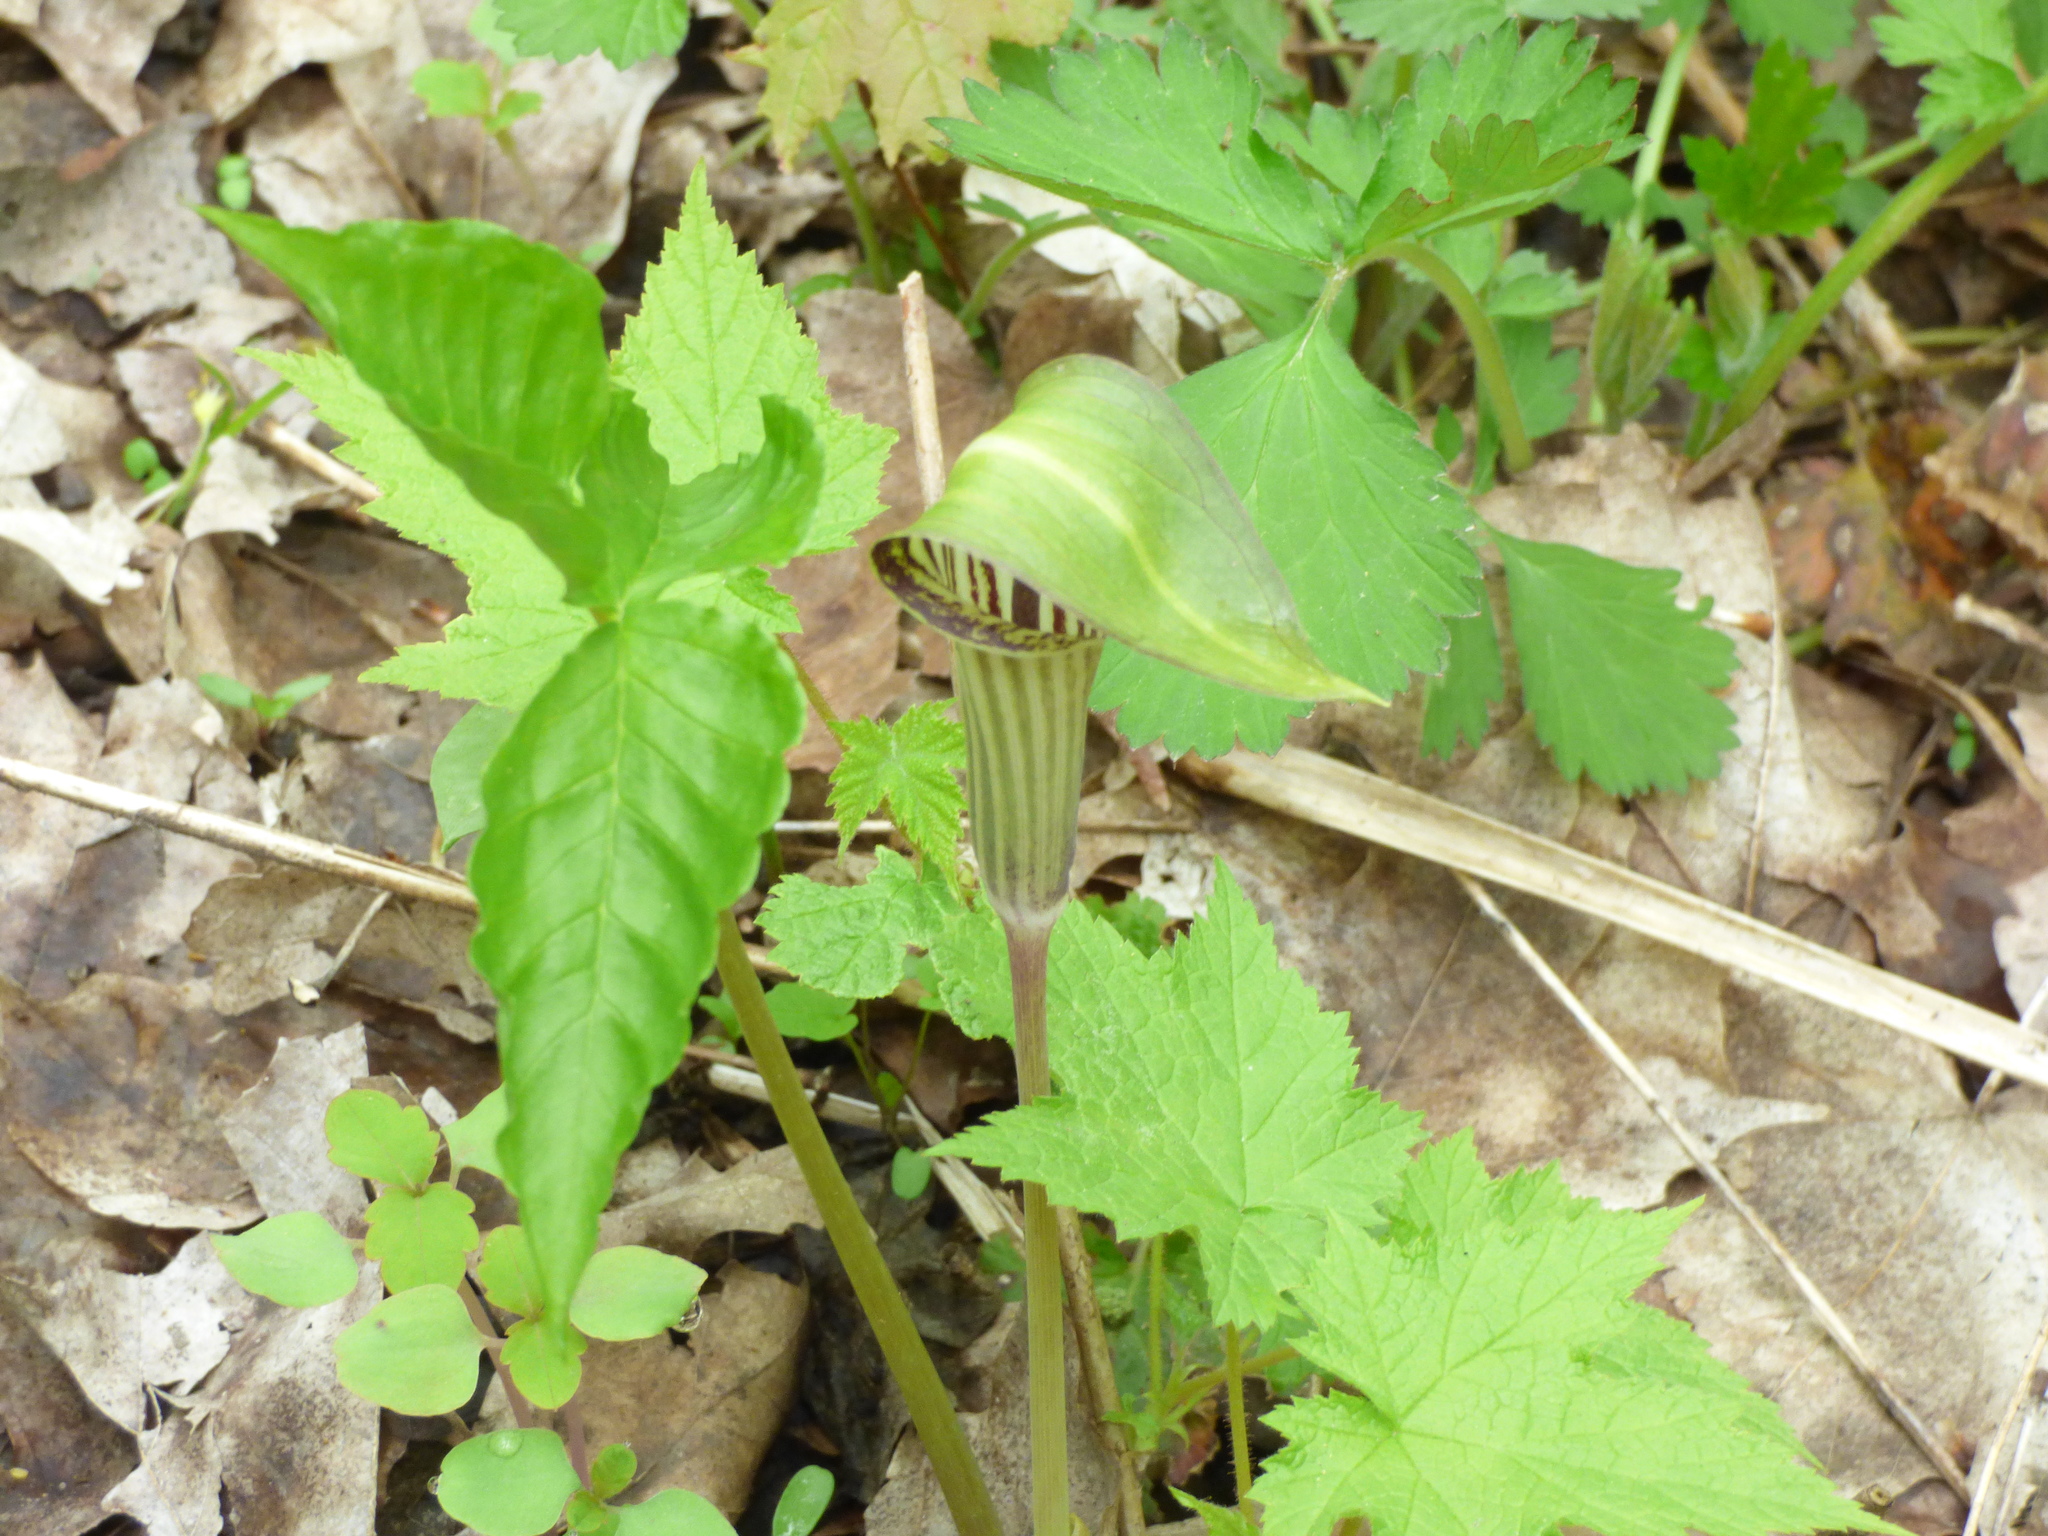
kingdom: Plantae
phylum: Tracheophyta
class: Liliopsida
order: Alismatales
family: Araceae
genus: Arisaema
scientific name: Arisaema triphyllum
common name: Jack-in-the-pulpit
